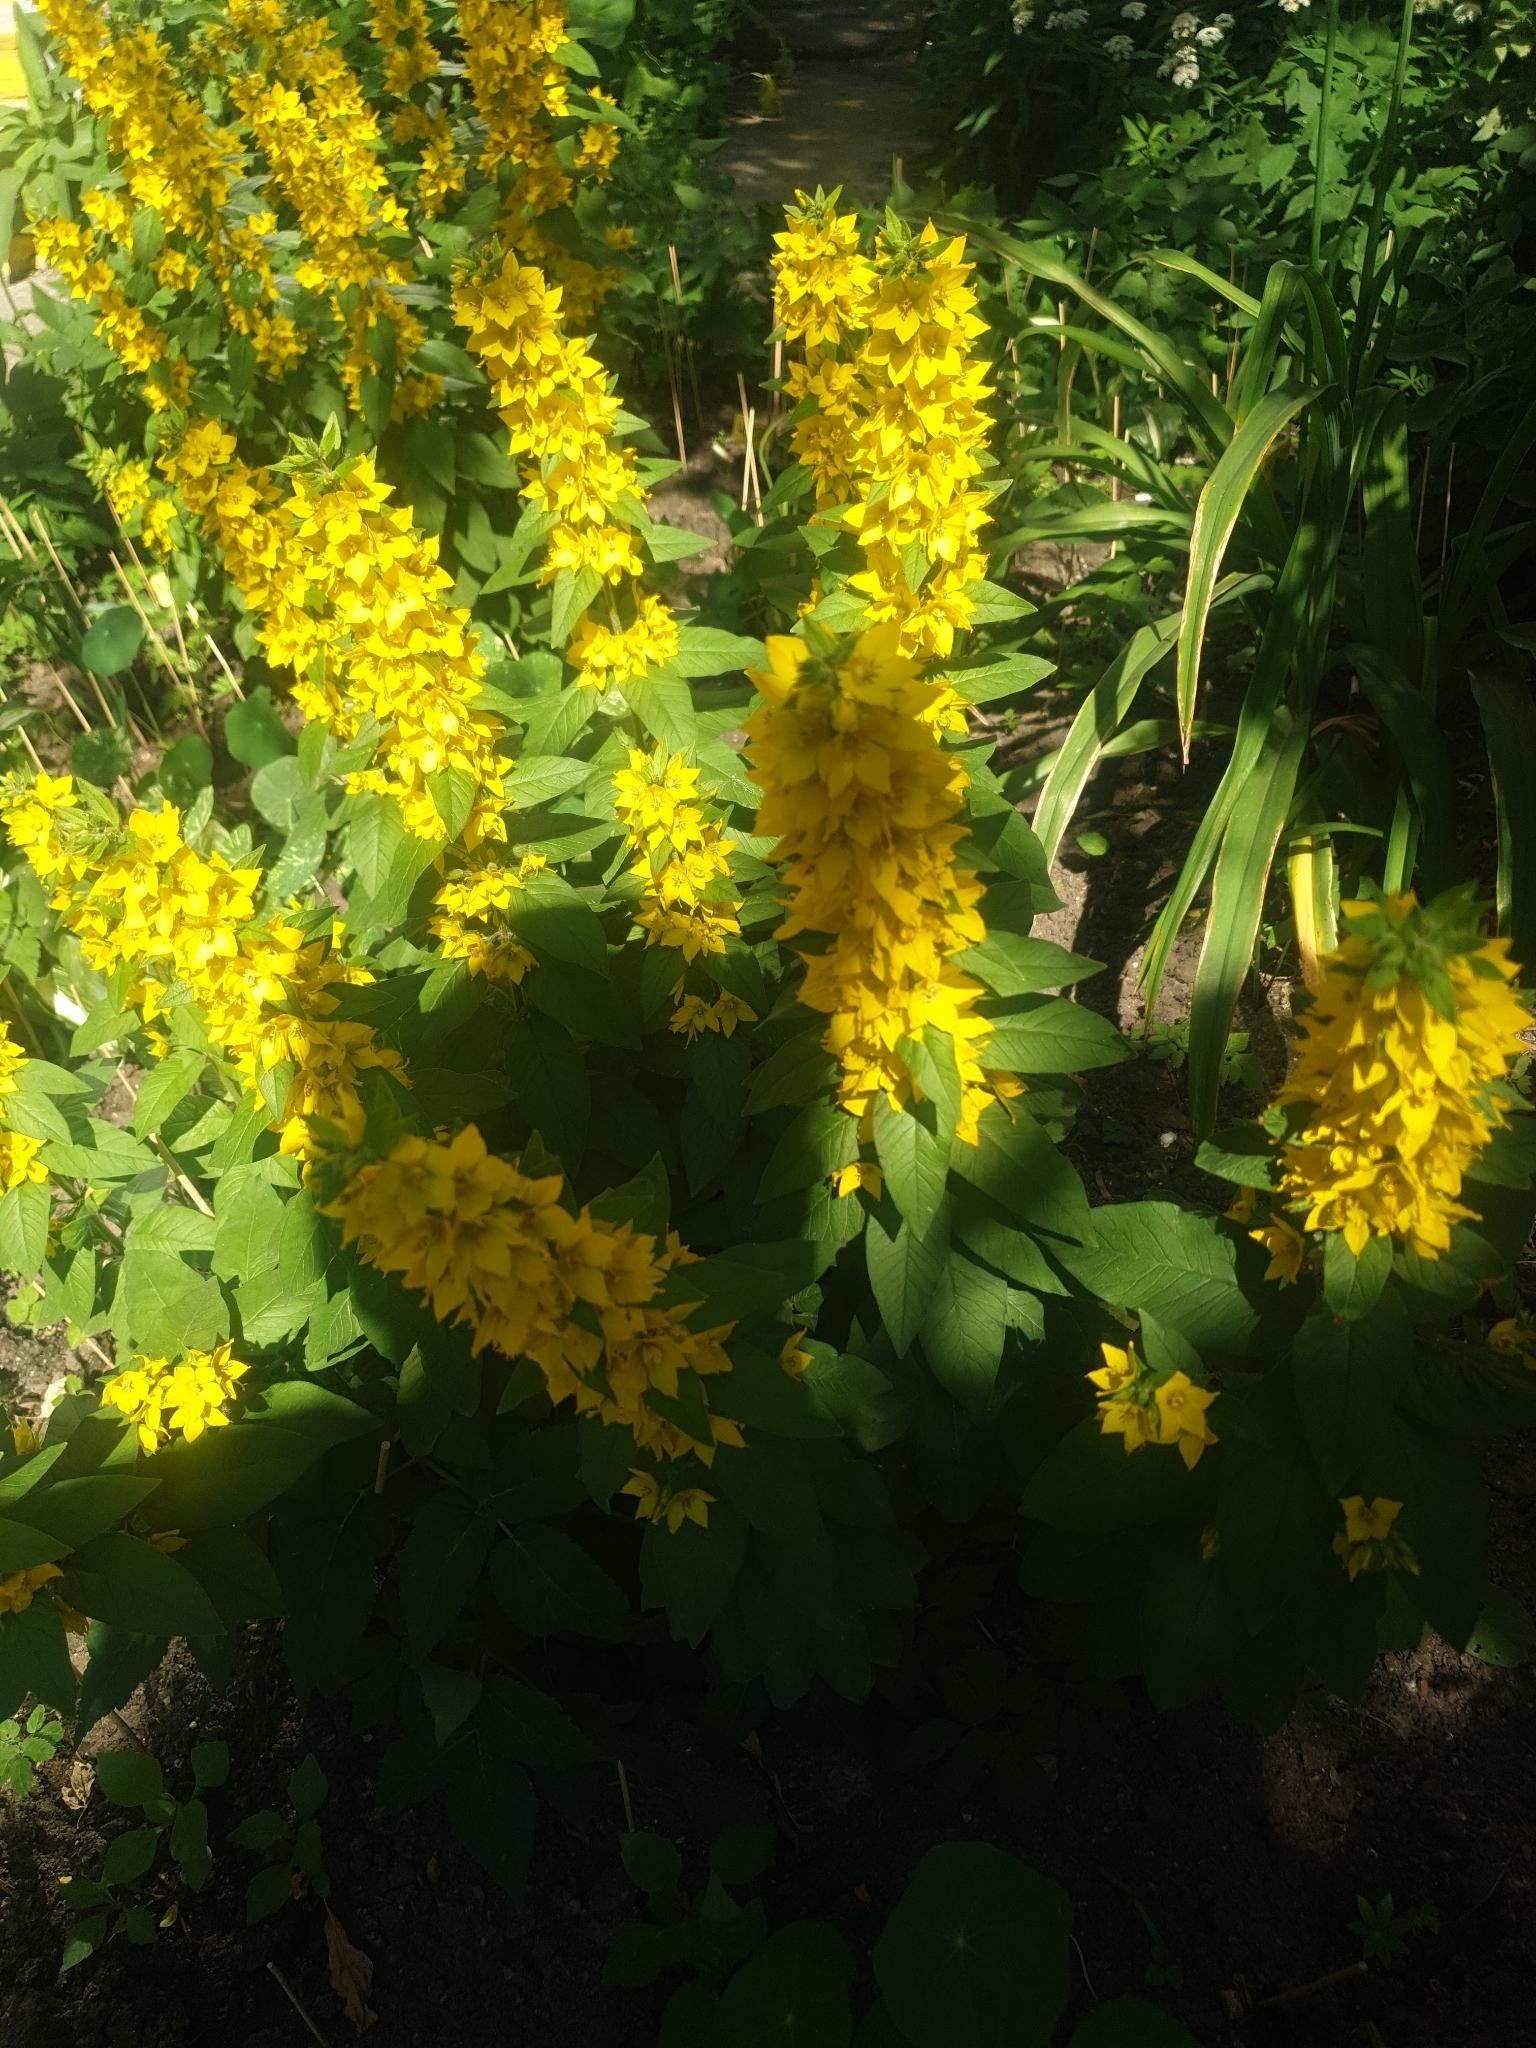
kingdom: Plantae
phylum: Tracheophyta
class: Magnoliopsida
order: Ericales
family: Primulaceae
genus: Lysimachia
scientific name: Lysimachia punctata
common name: Dotted loosestrife
